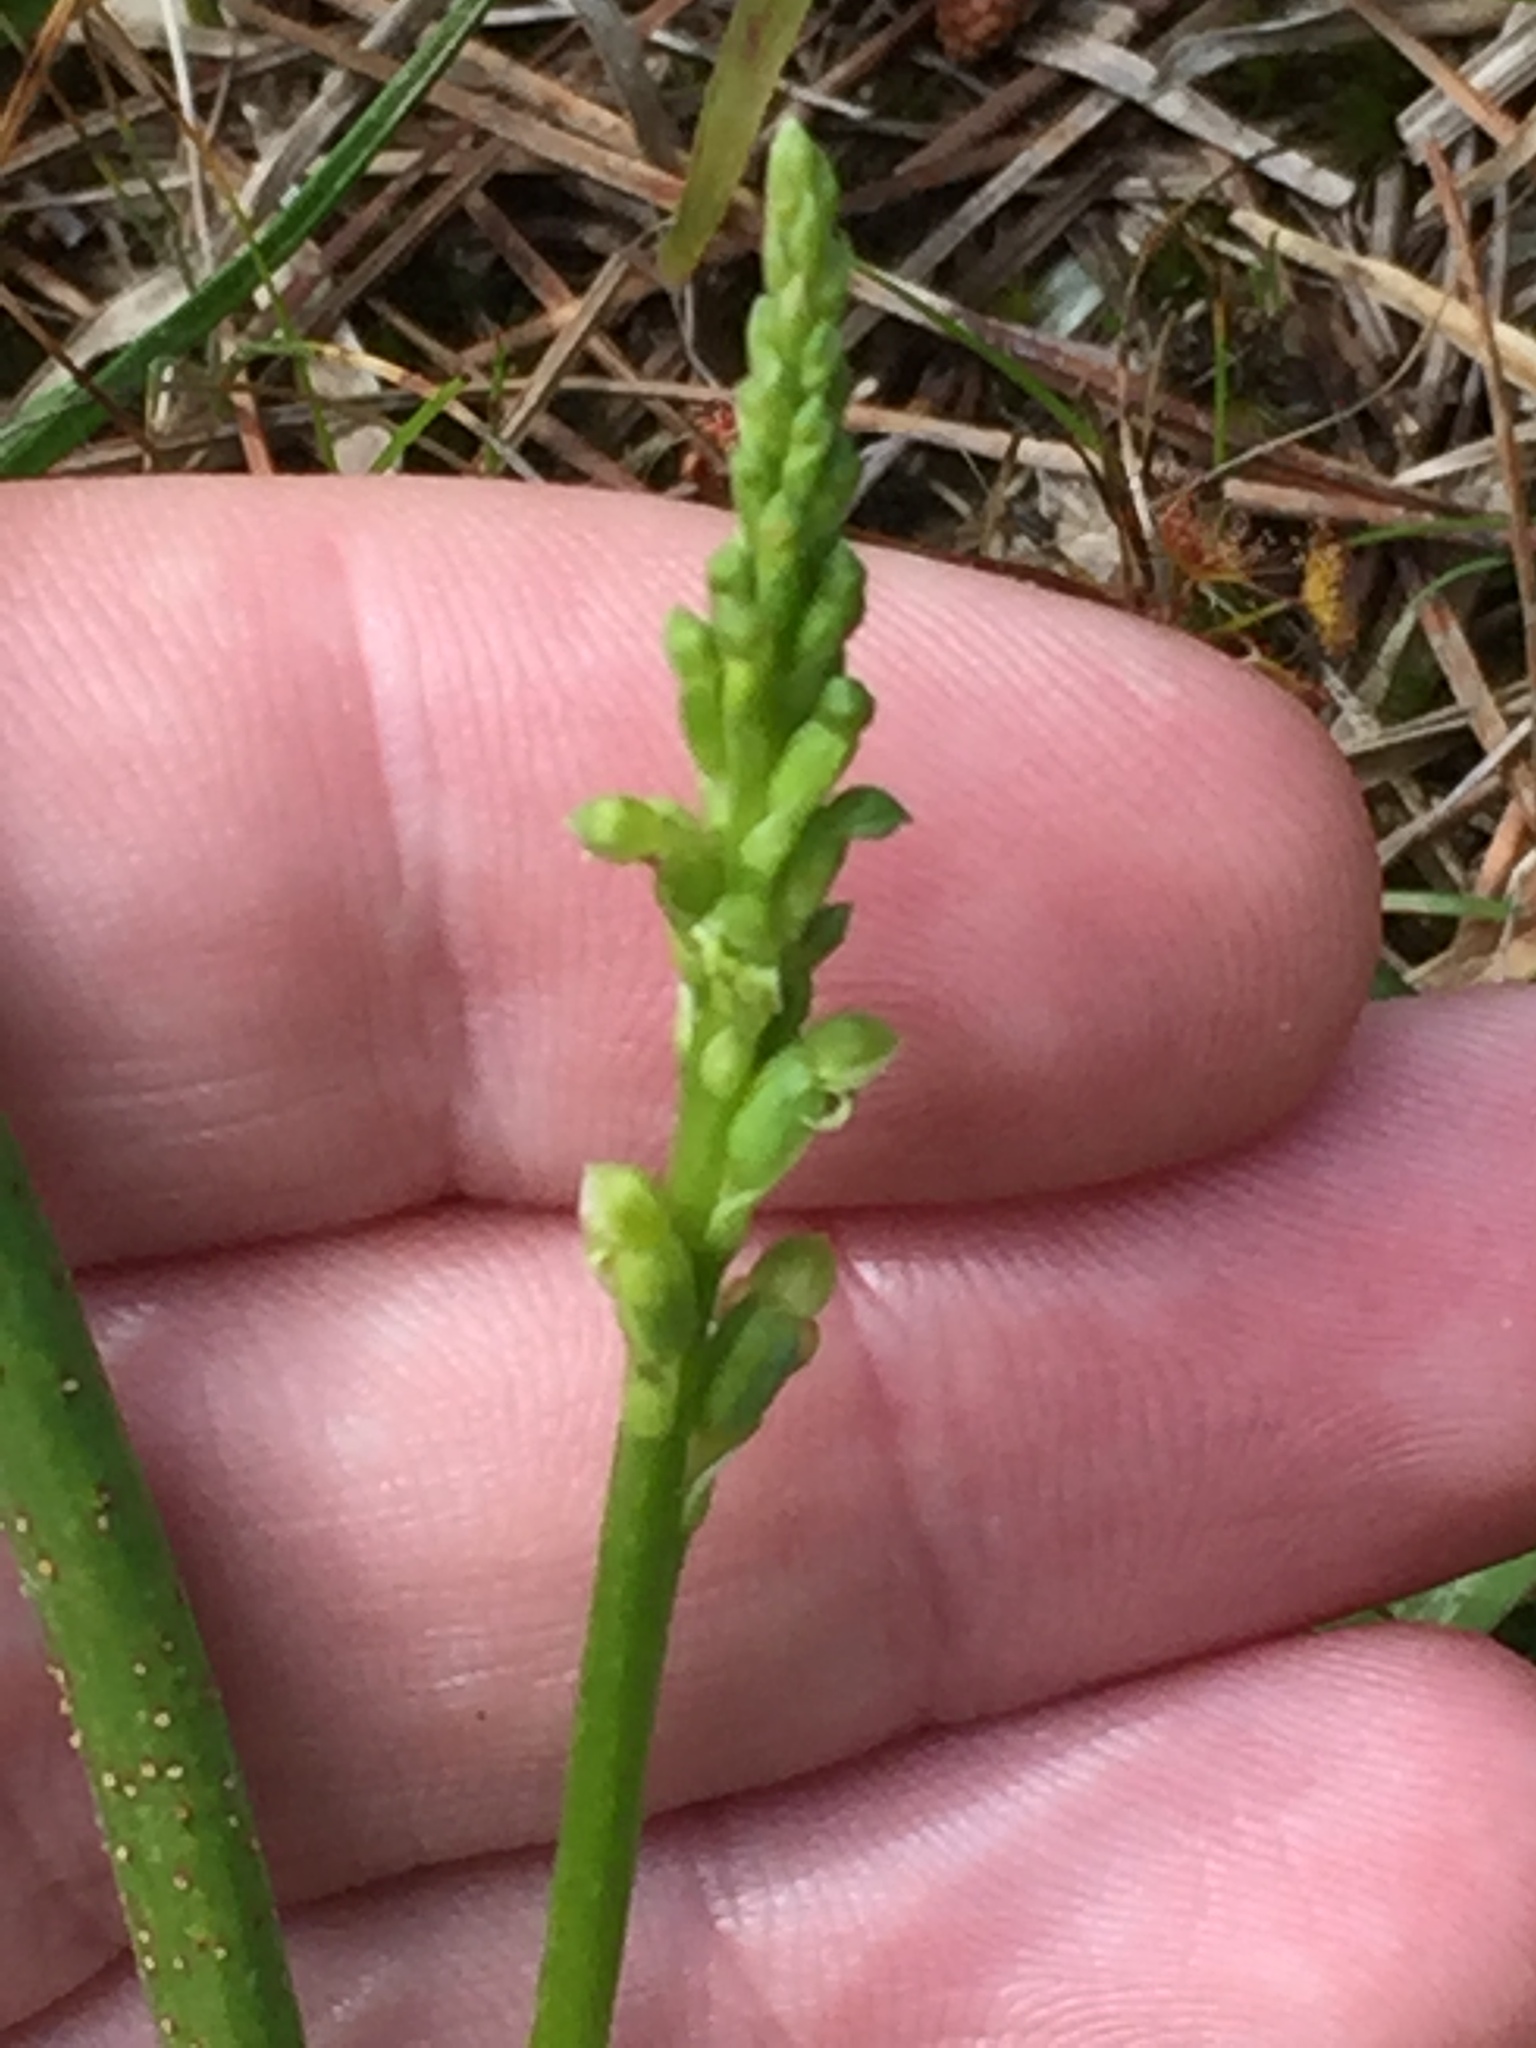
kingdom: Plantae
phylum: Tracheophyta
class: Liliopsida
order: Asparagales
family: Orchidaceae
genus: Microtis
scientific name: Microtis unifolia
